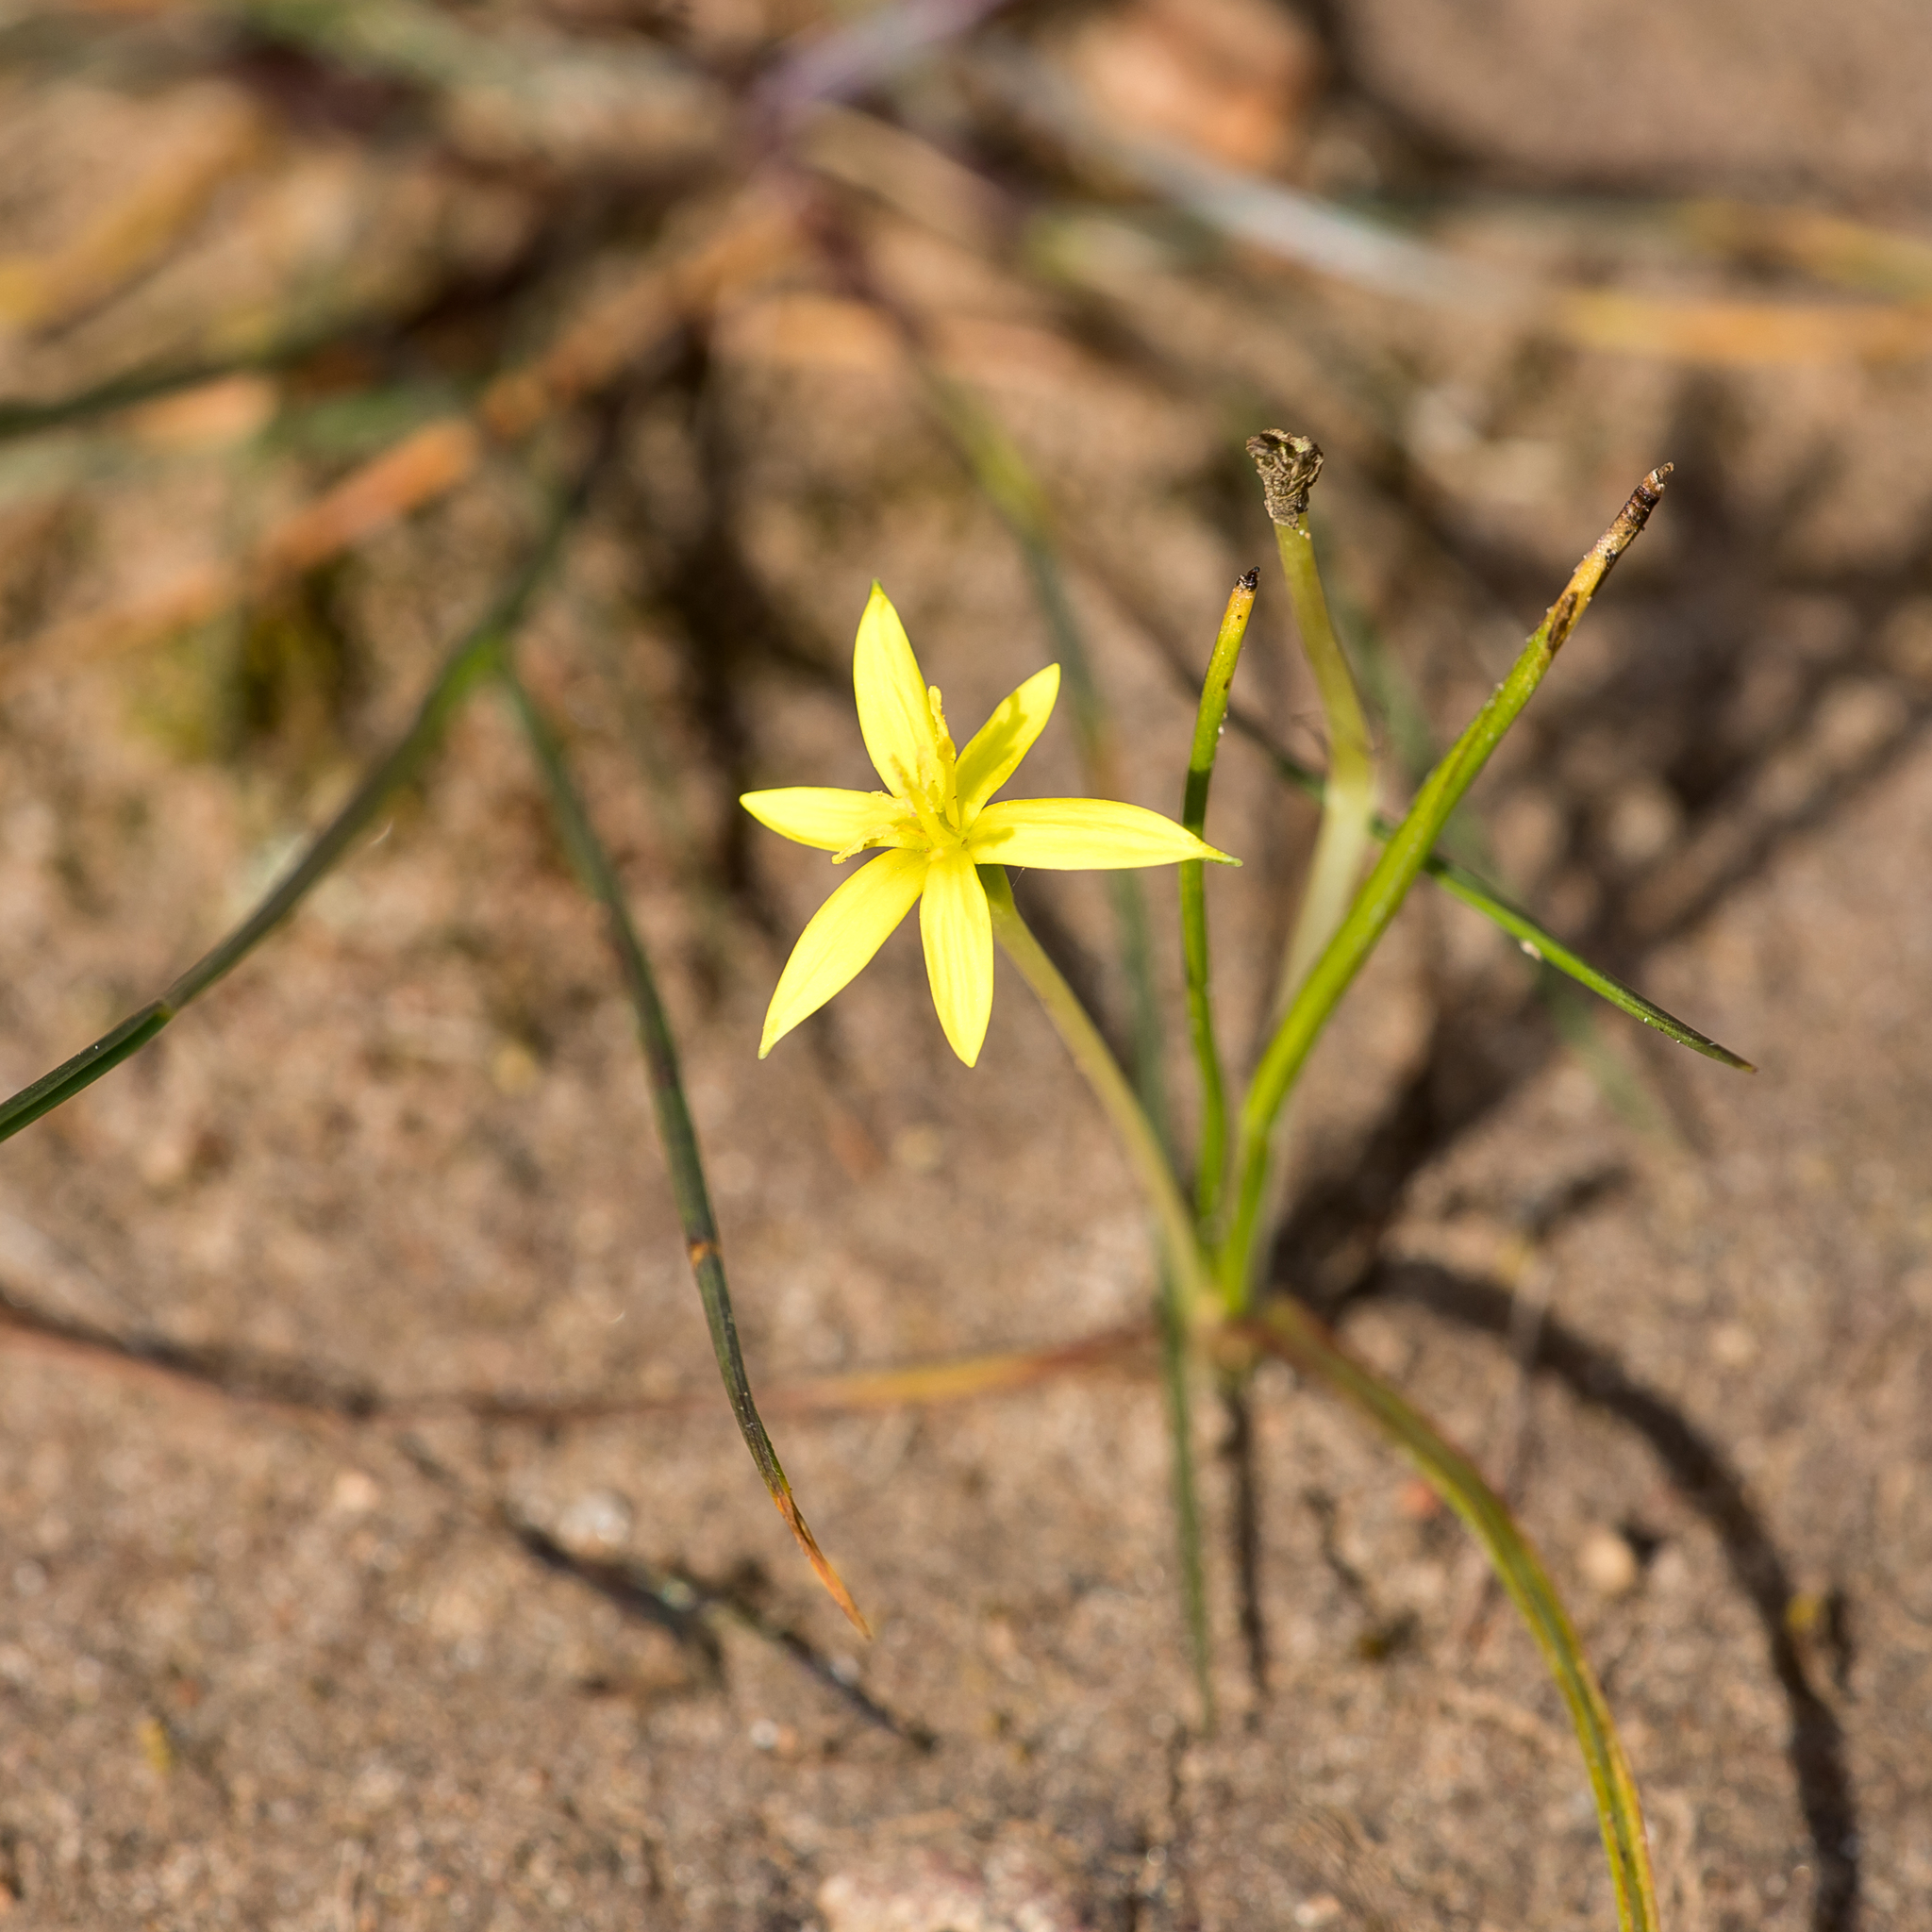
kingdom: Plantae
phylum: Tracheophyta
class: Liliopsida
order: Asparagales
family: Hypoxidaceae
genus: Pauridia
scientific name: Pauridia glabella
